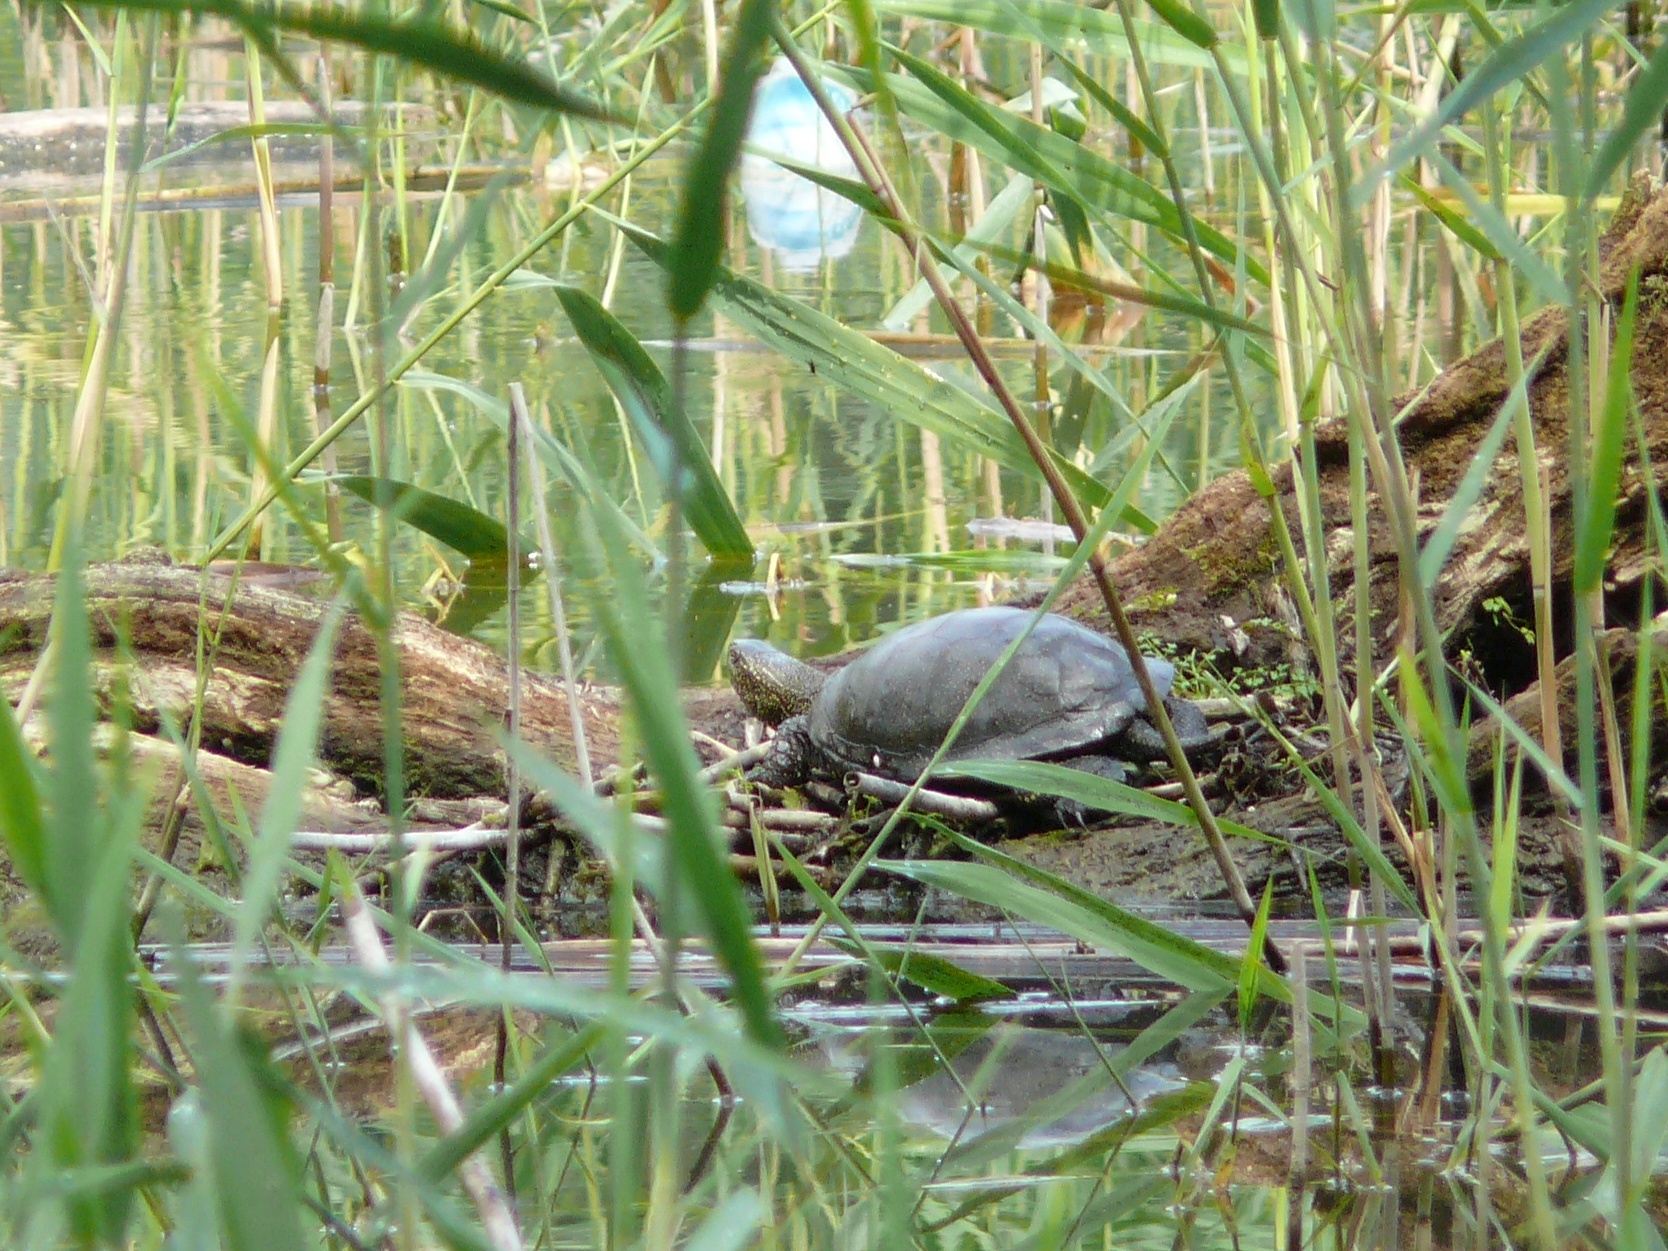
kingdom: Animalia
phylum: Chordata
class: Testudines
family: Emydidae
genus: Emys
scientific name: Emys orbicularis
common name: European pond turtle
